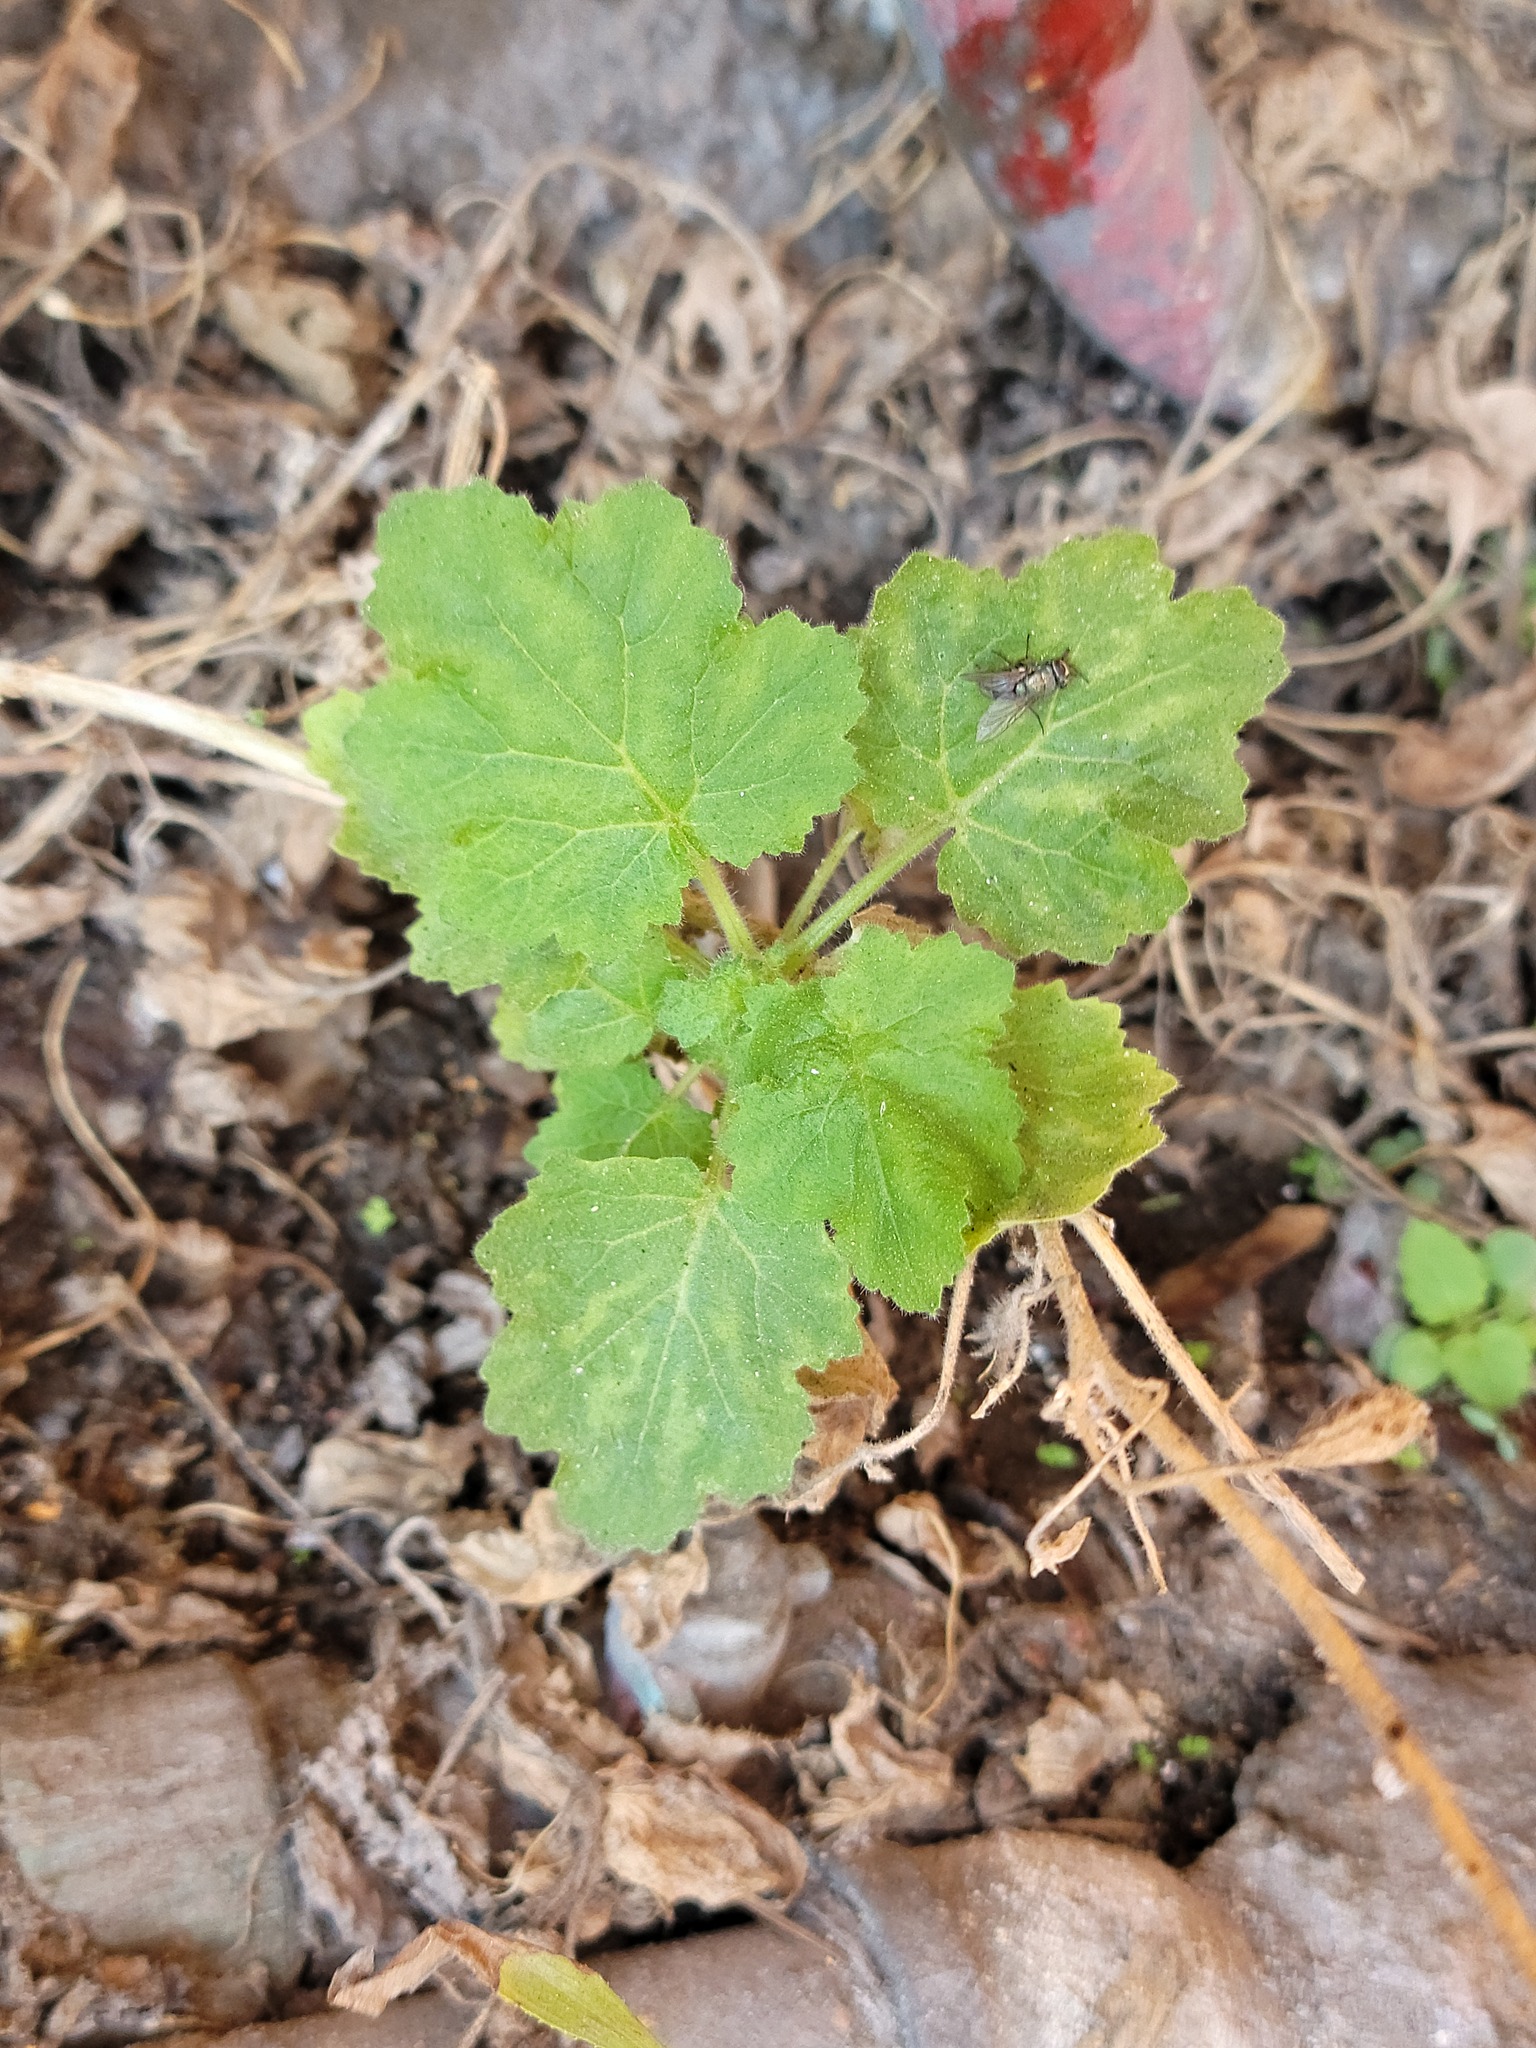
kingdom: Plantae
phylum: Tracheophyta
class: Magnoliopsida
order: Cornales
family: Loasaceae
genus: Eucnide
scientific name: Eucnide lobata
